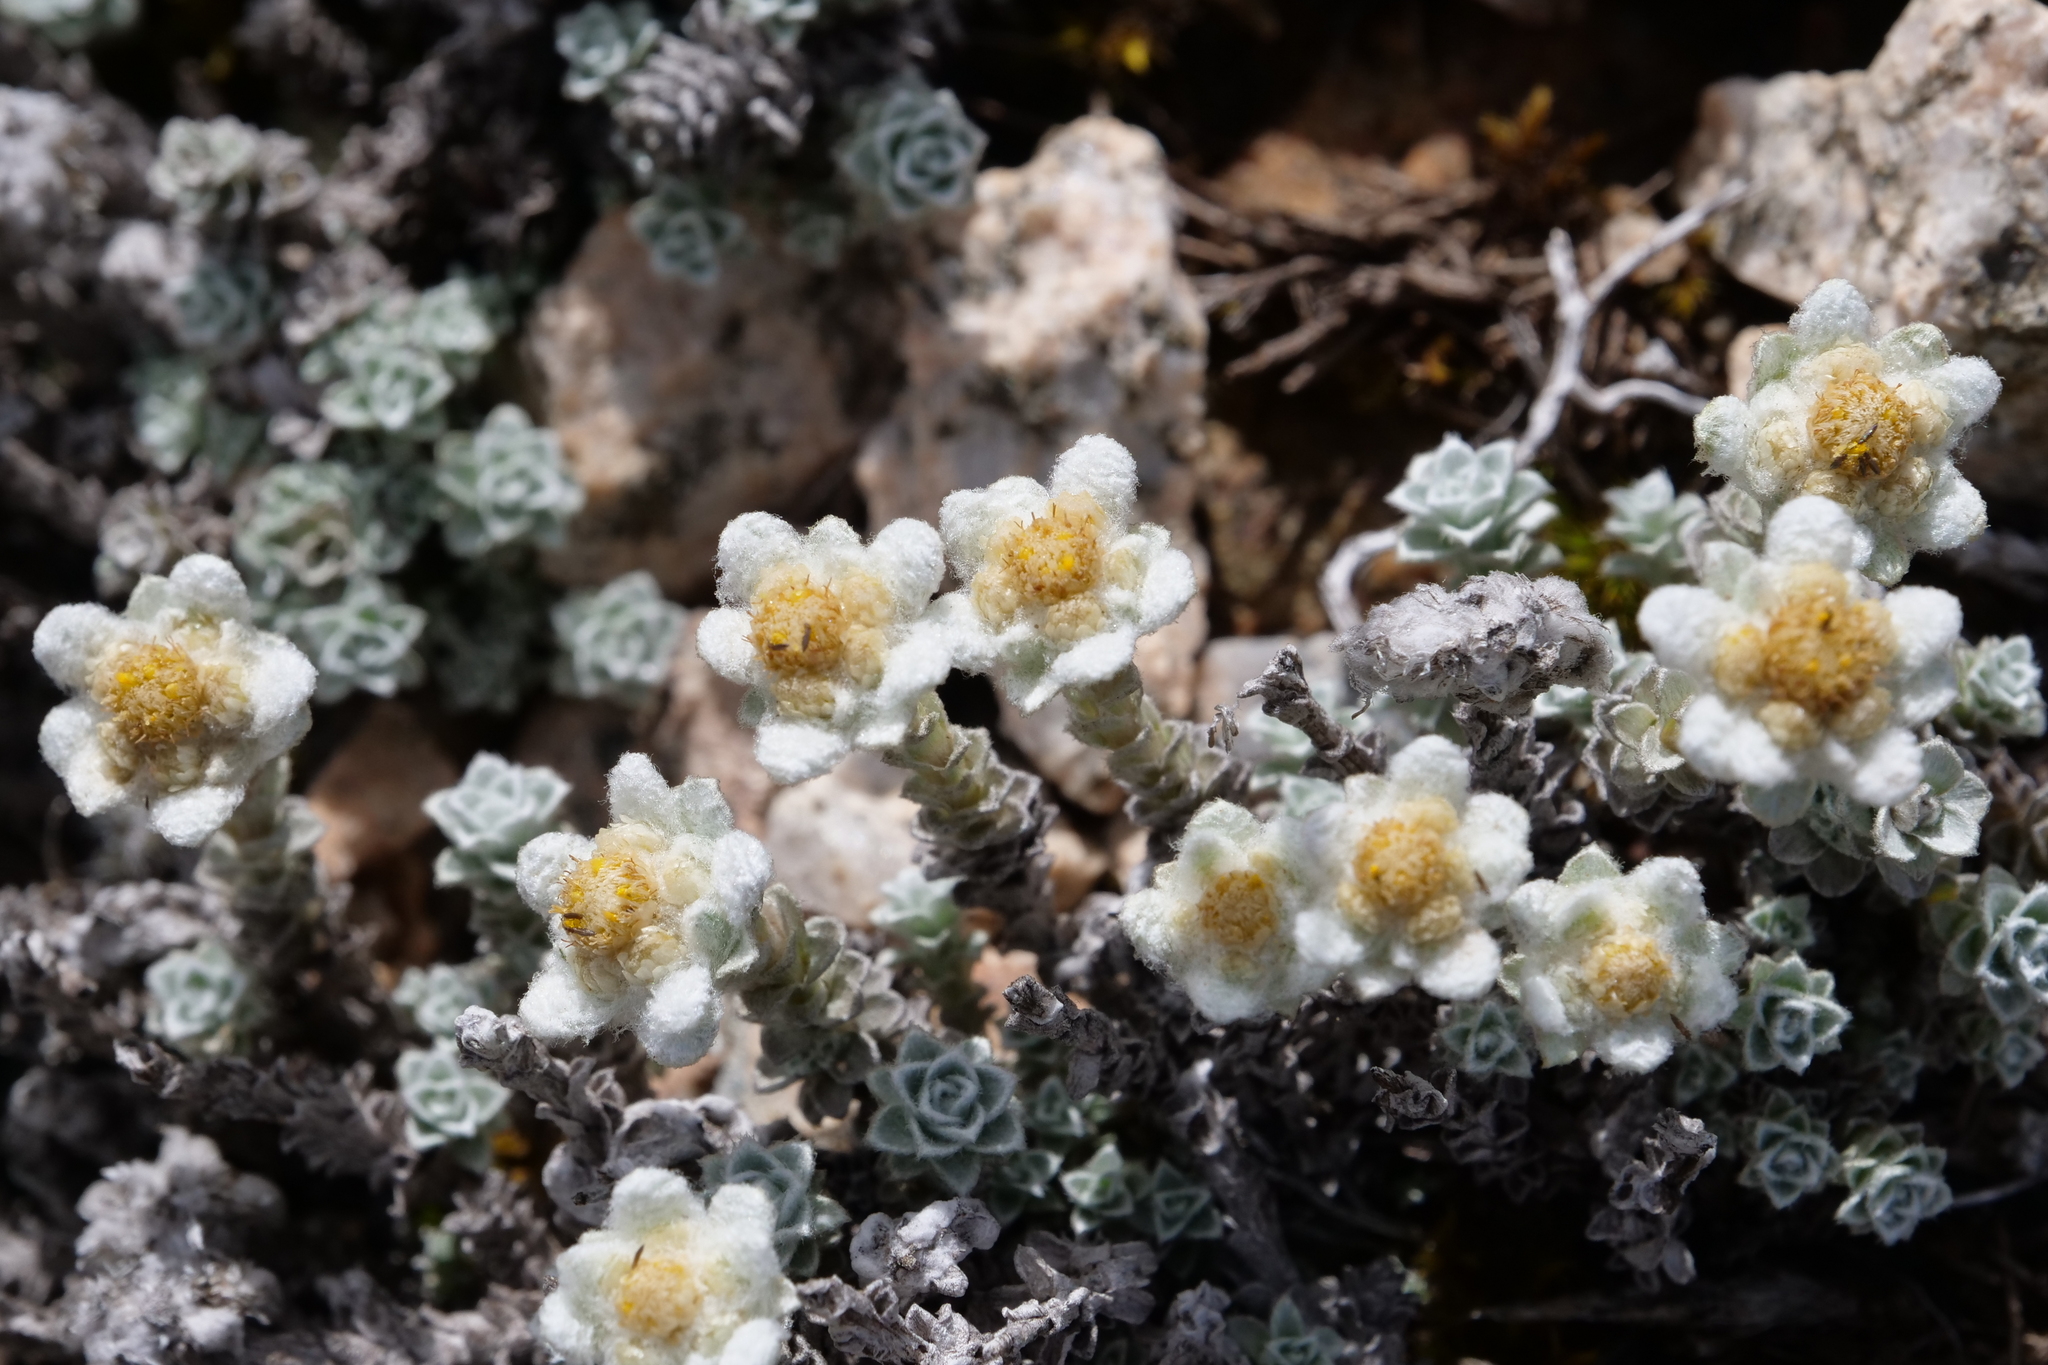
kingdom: Plantae
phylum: Tracheophyta
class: Magnoliopsida
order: Asterales
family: Asteraceae
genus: Leucogenes
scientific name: Leucogenes grandiceps
